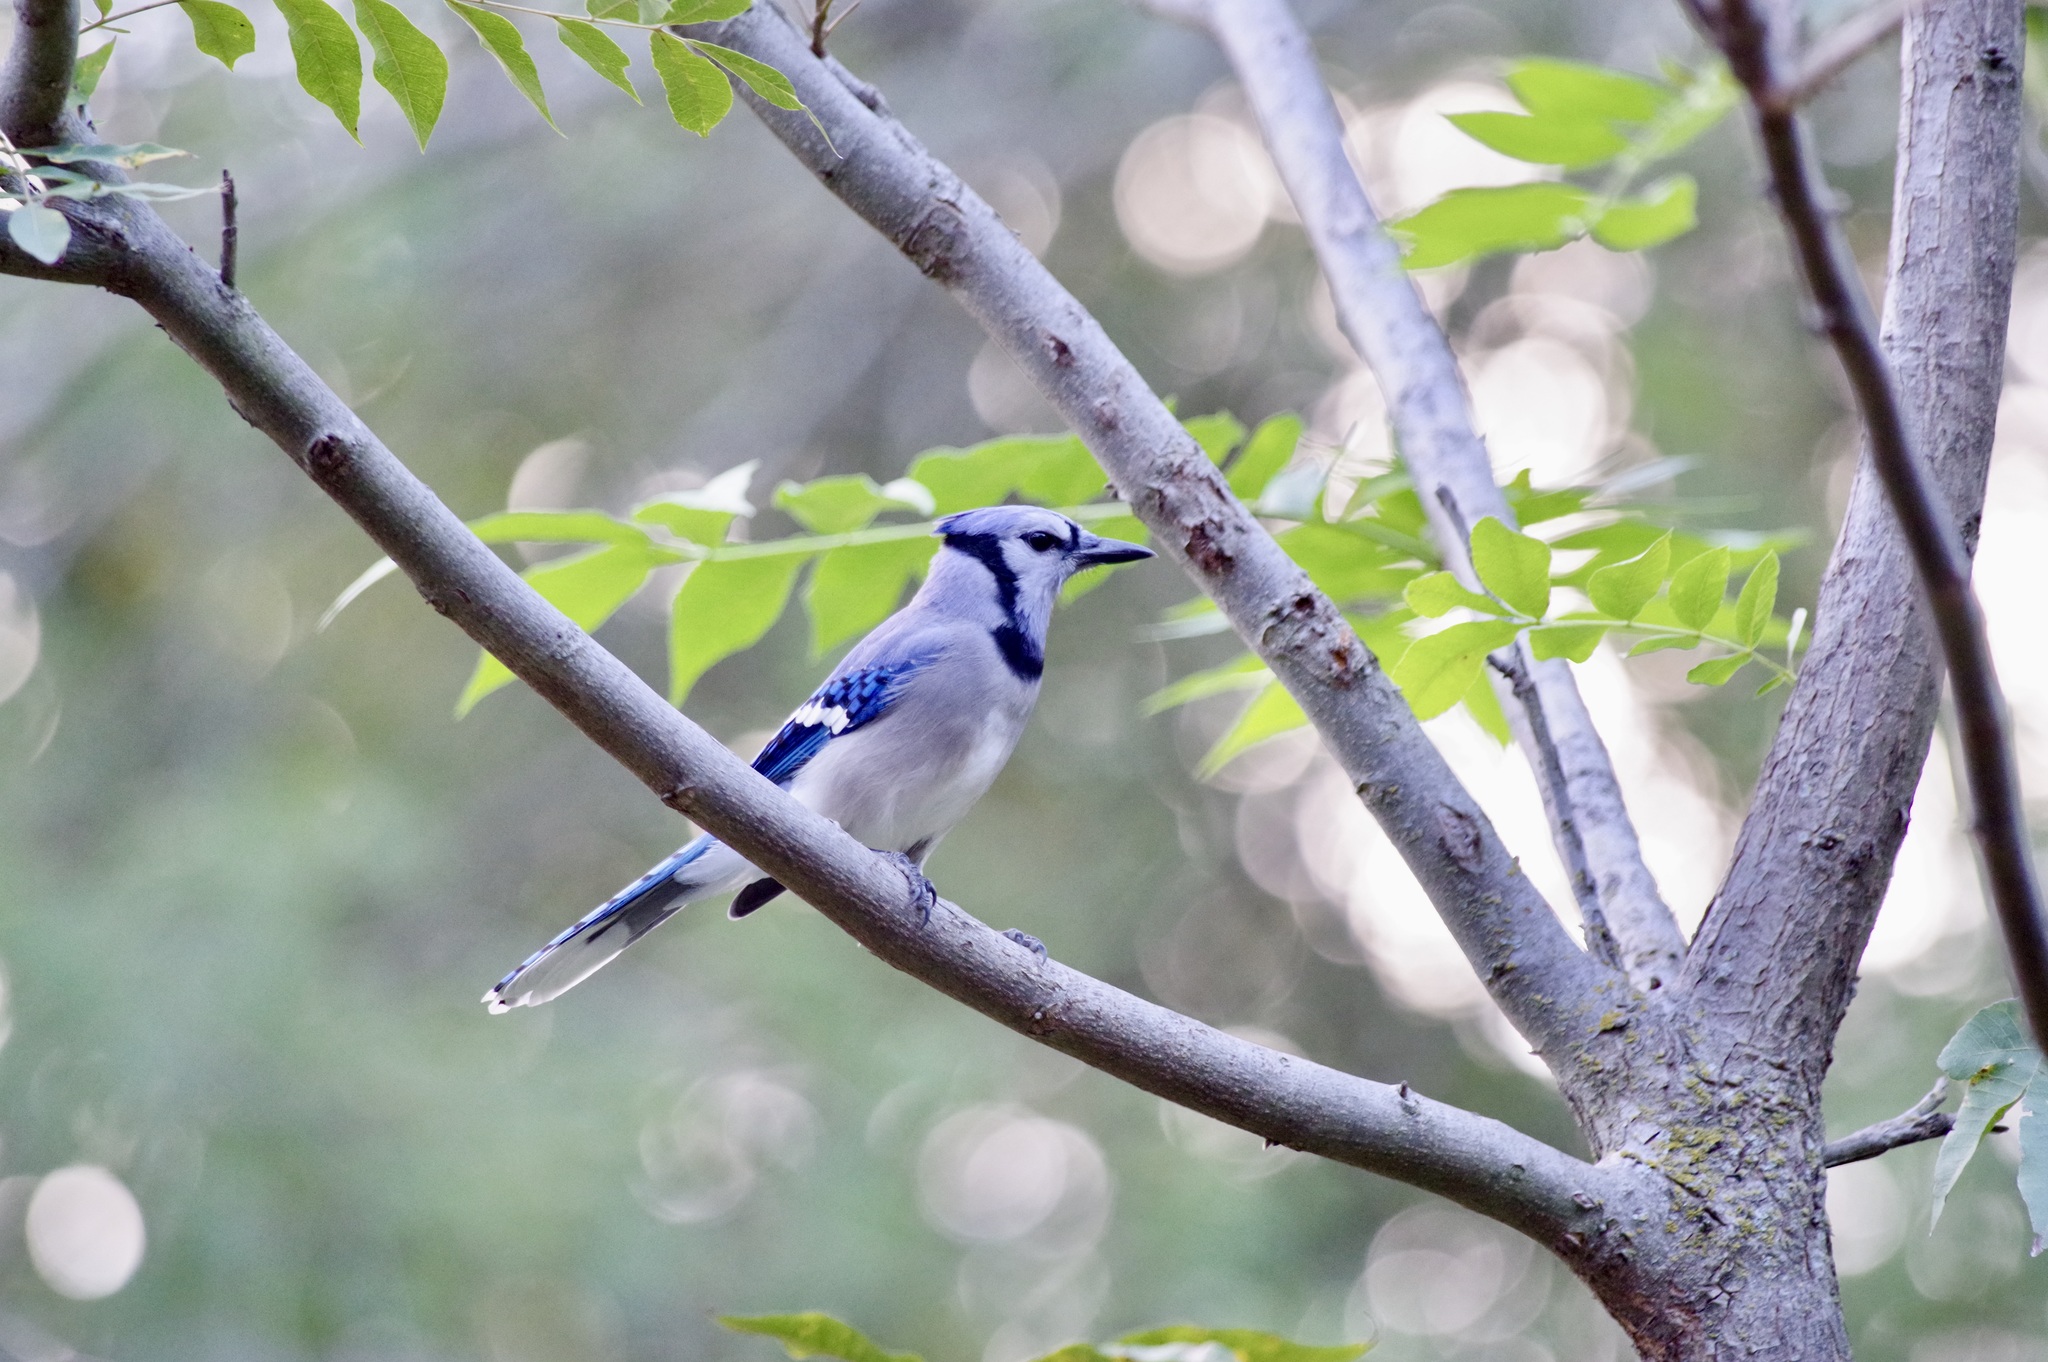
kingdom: Animalia
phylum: Chordata
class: Aves
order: Passeriformes
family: Corvidae
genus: Cyanocitta
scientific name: Cyanocitta cristata
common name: Blue jay
